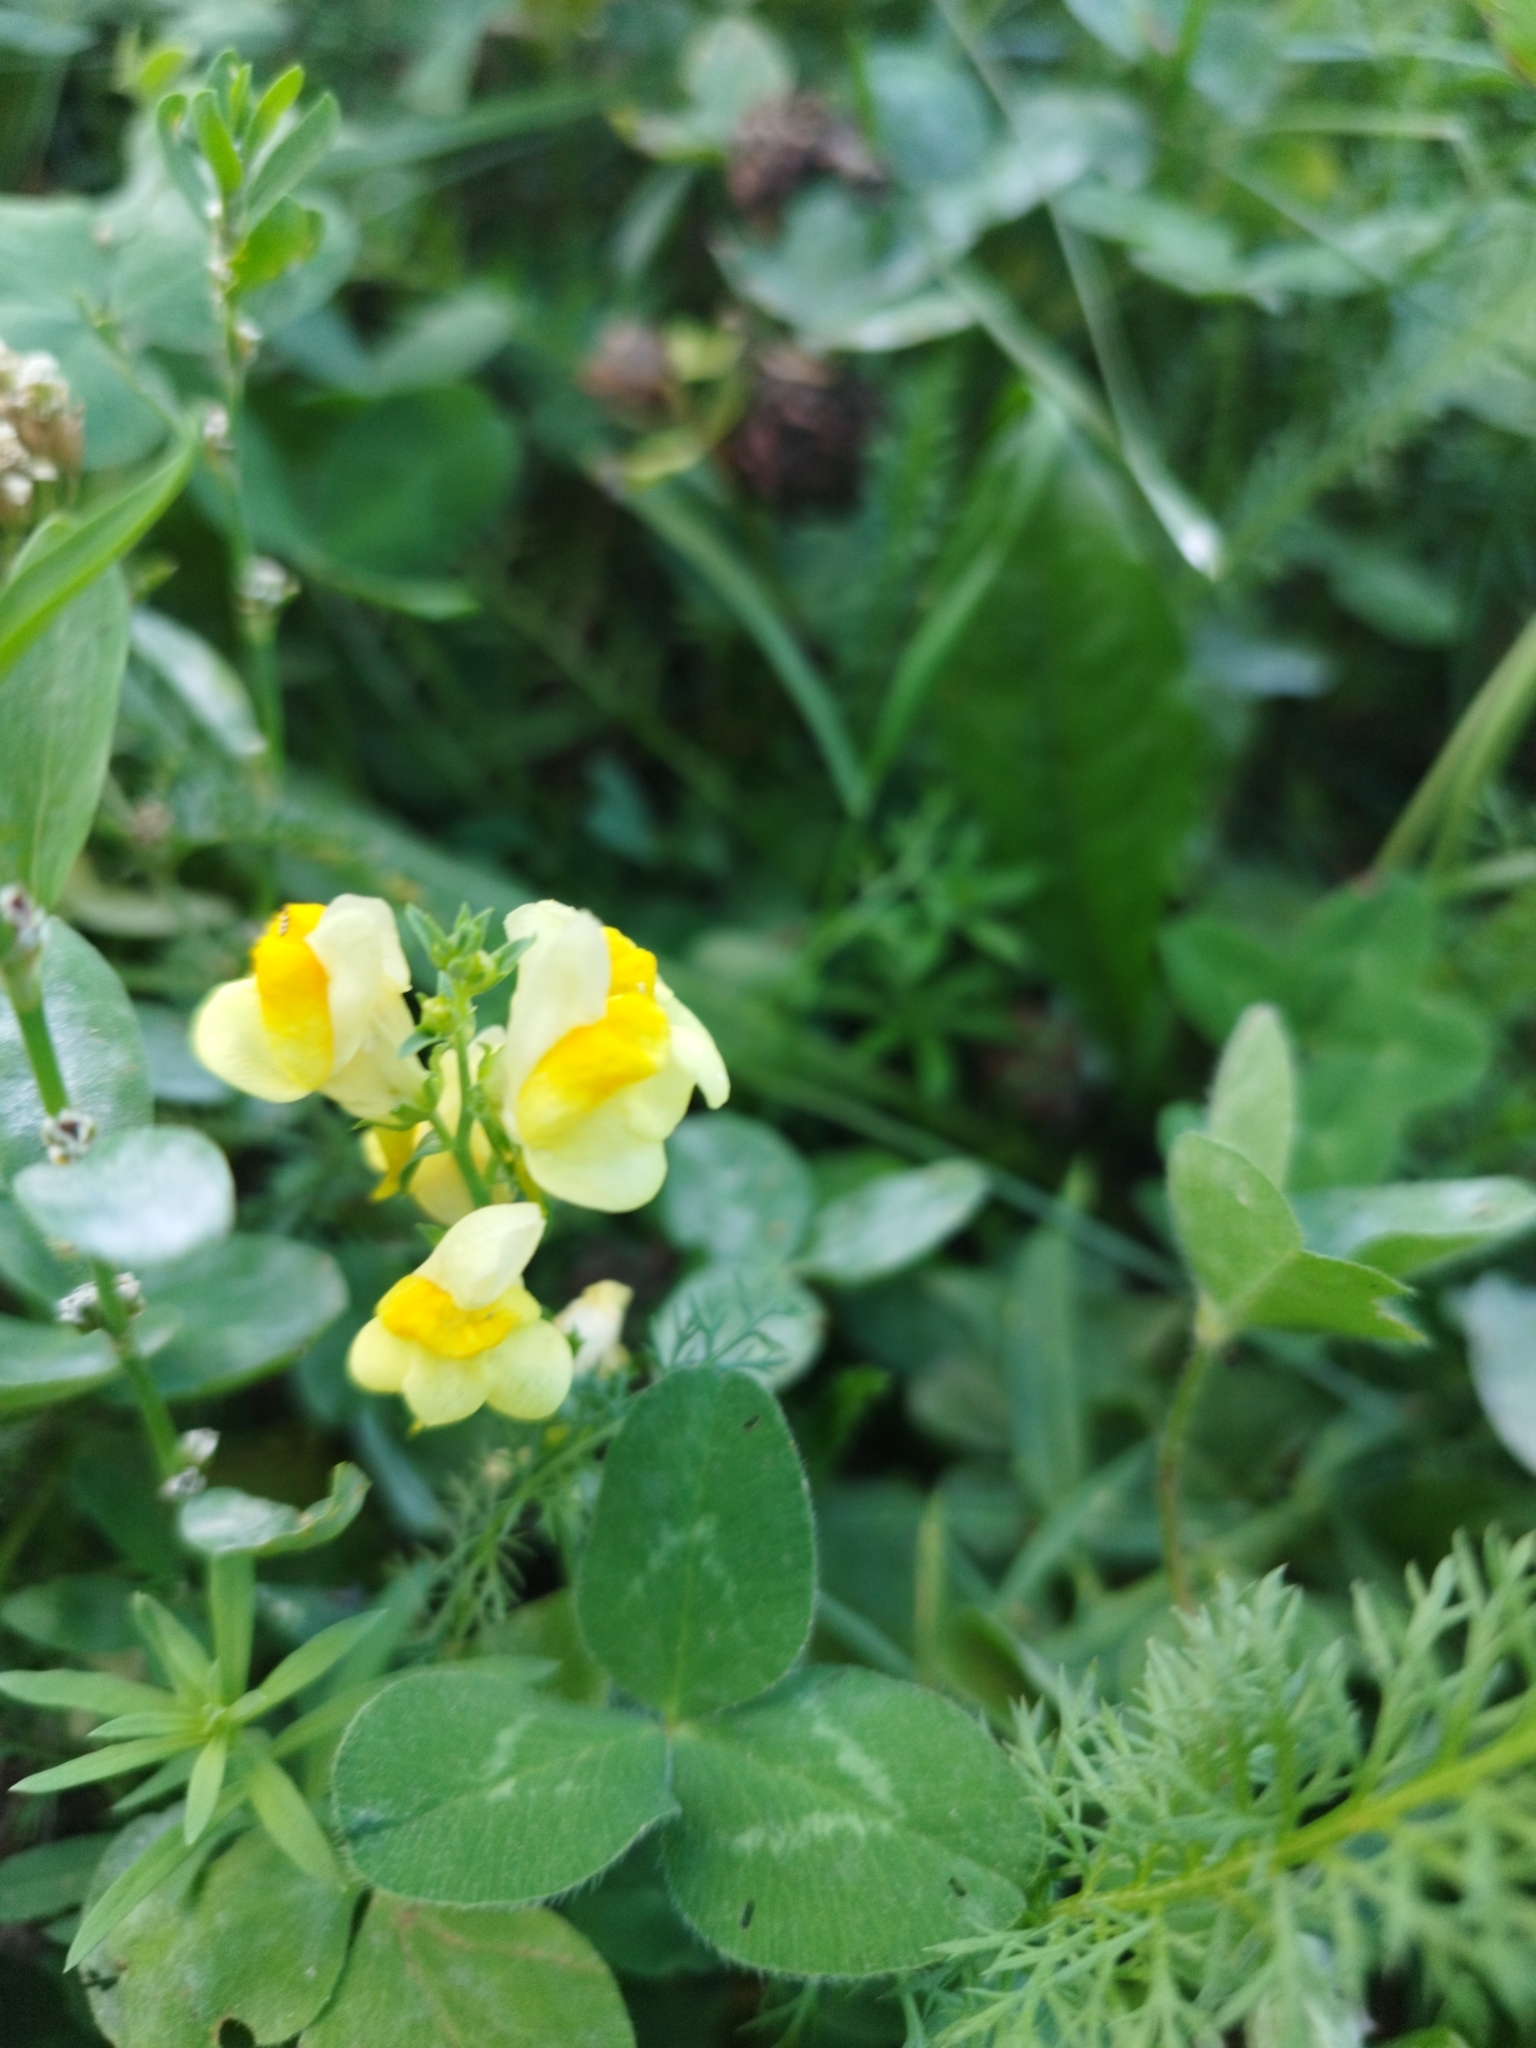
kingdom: Plantae
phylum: Tracheophyta
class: Magnoliopsida
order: Lamiales
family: Plantaginaceae
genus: Linaria
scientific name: Linaria vulgaris
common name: Butter and eggs
